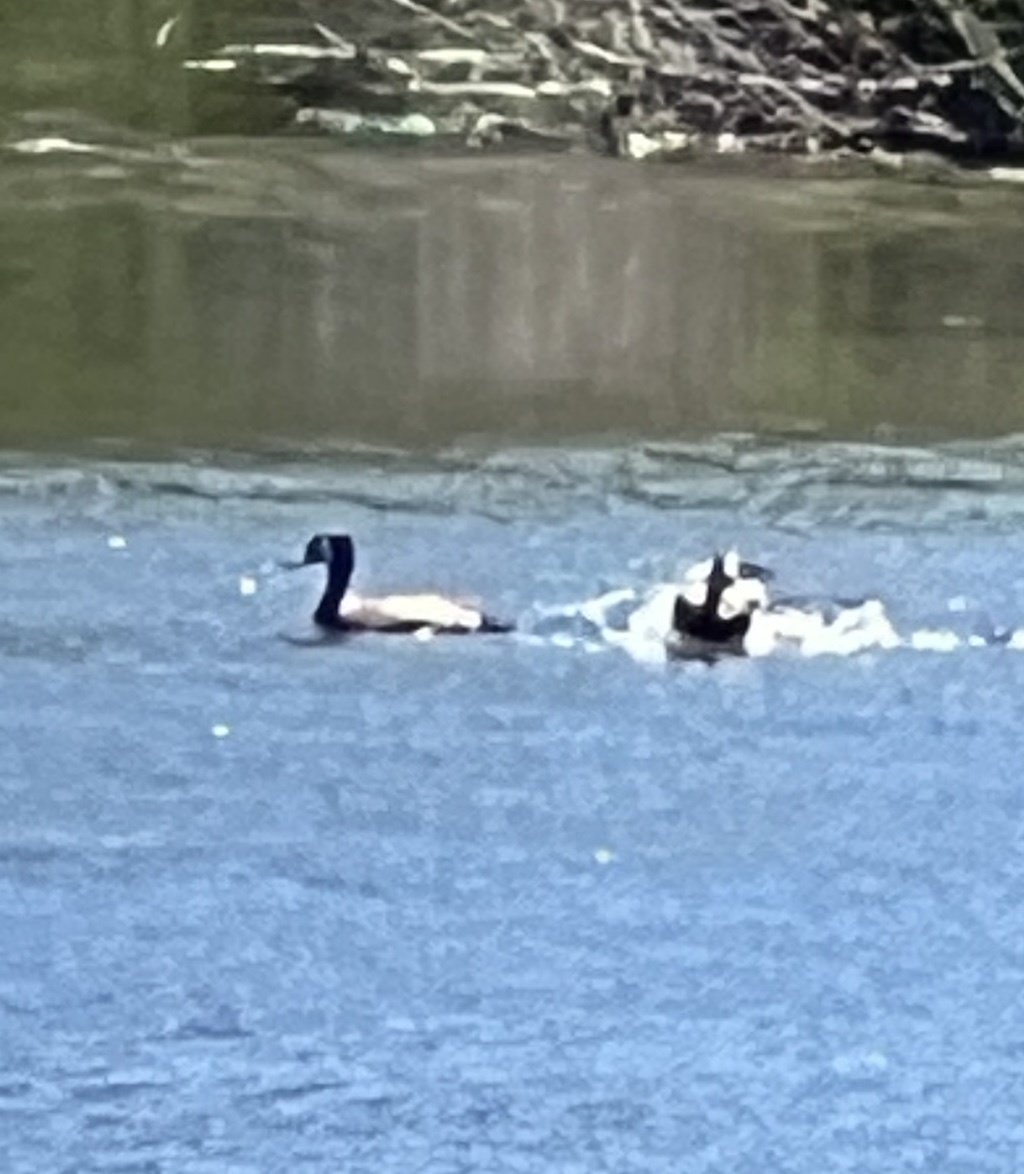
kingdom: Animalia
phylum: Chordata
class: Aves
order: Anseriformes
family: Anatidae
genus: Spatula
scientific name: Spatula discors
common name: Blue-winged teal
